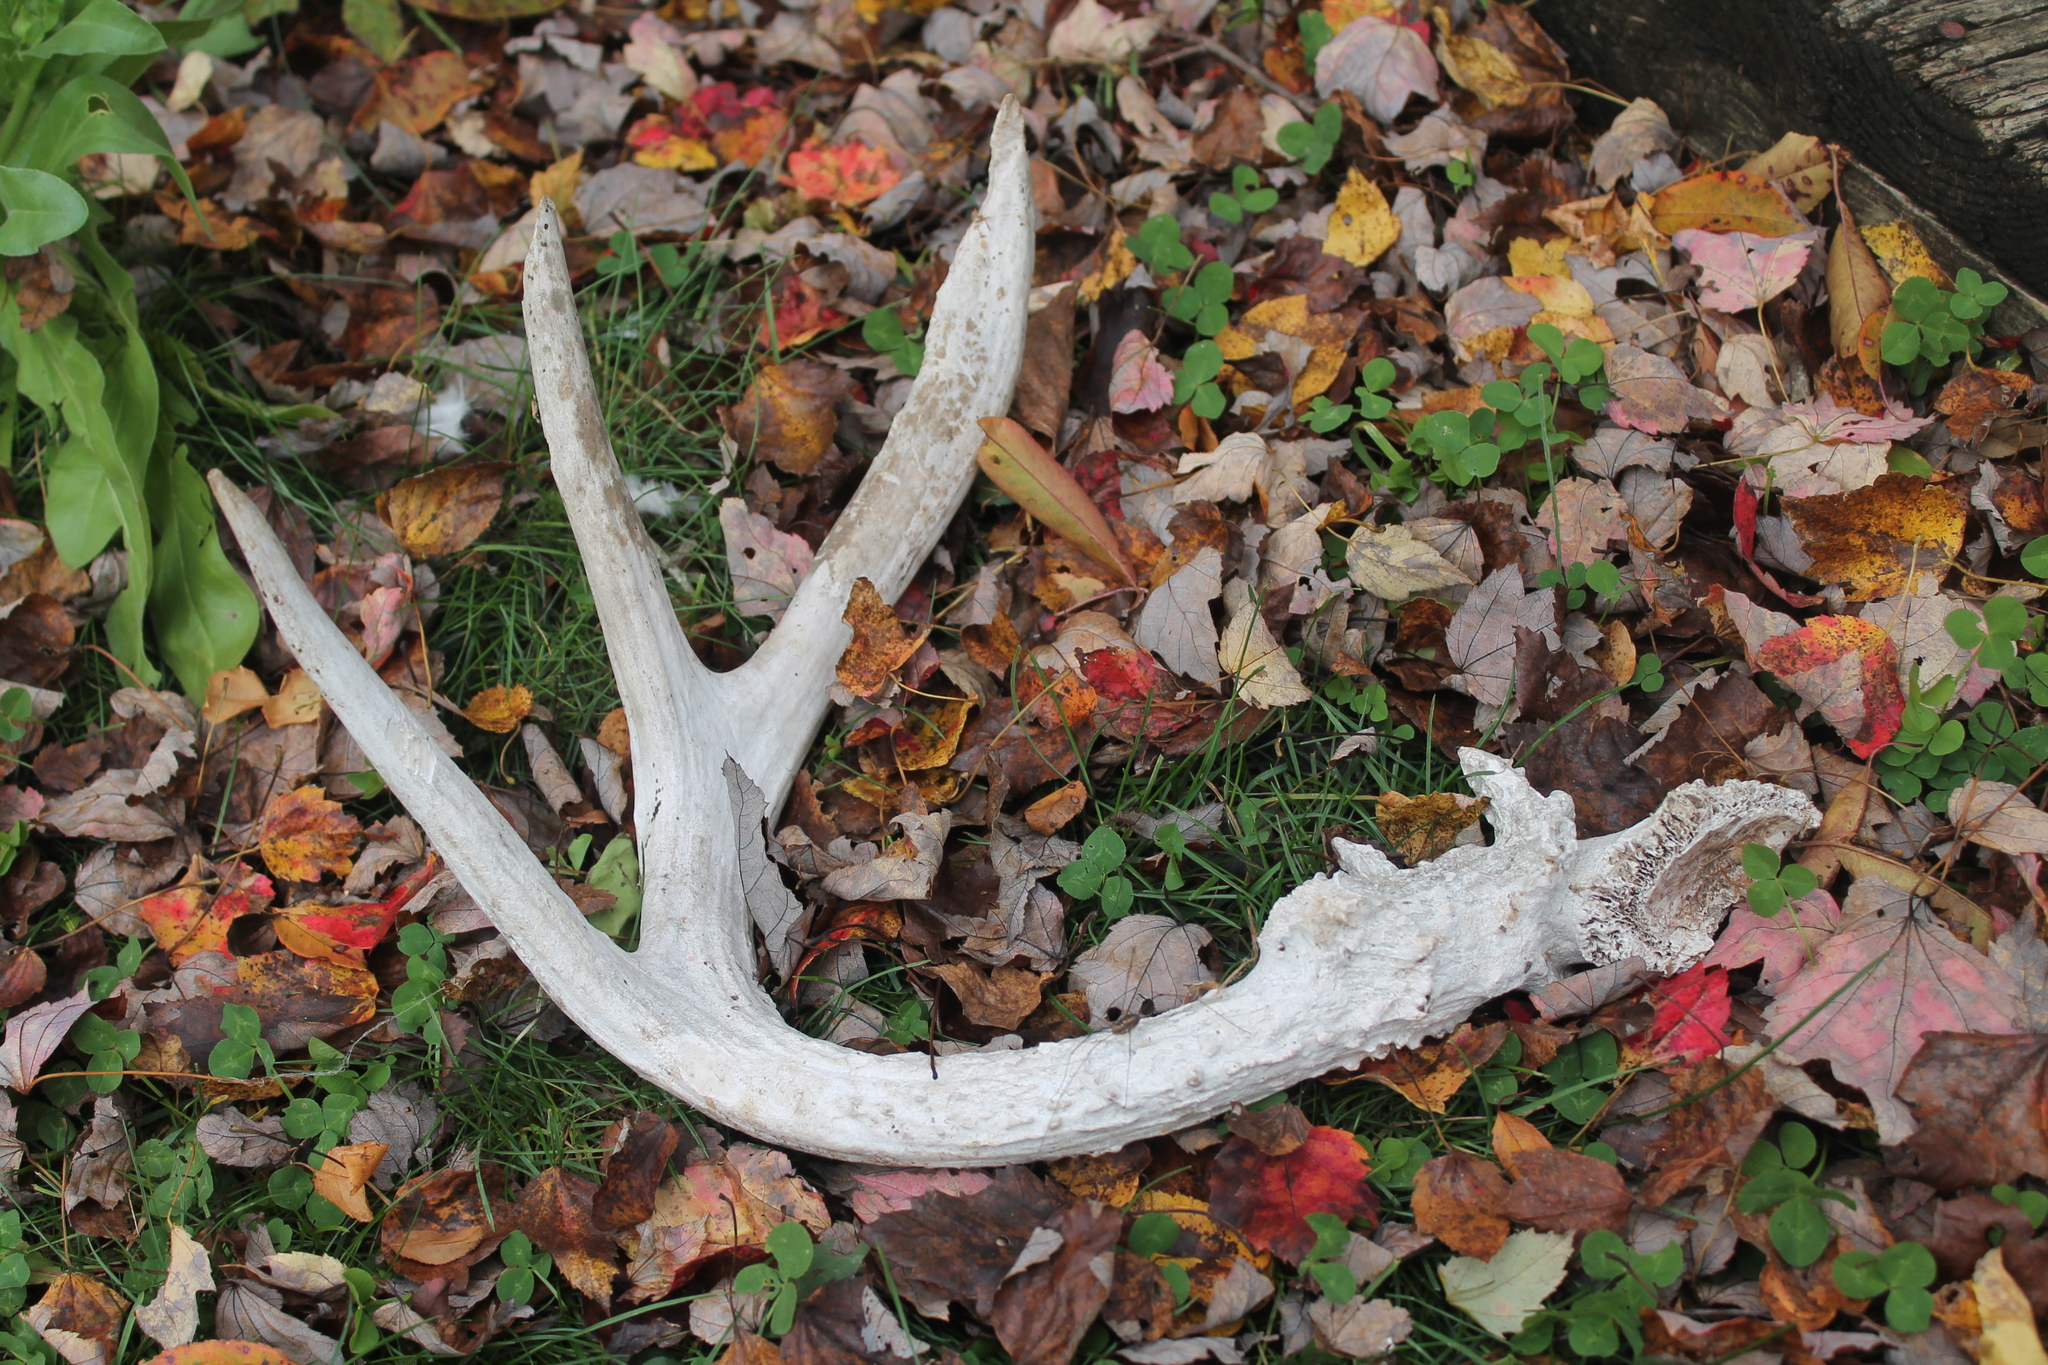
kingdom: Animalia
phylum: Chordata
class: Mammalia
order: Artiodactyla
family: Cervidae
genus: Odocoileus
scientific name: Odocoileus virginianus
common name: White-tailed deer
